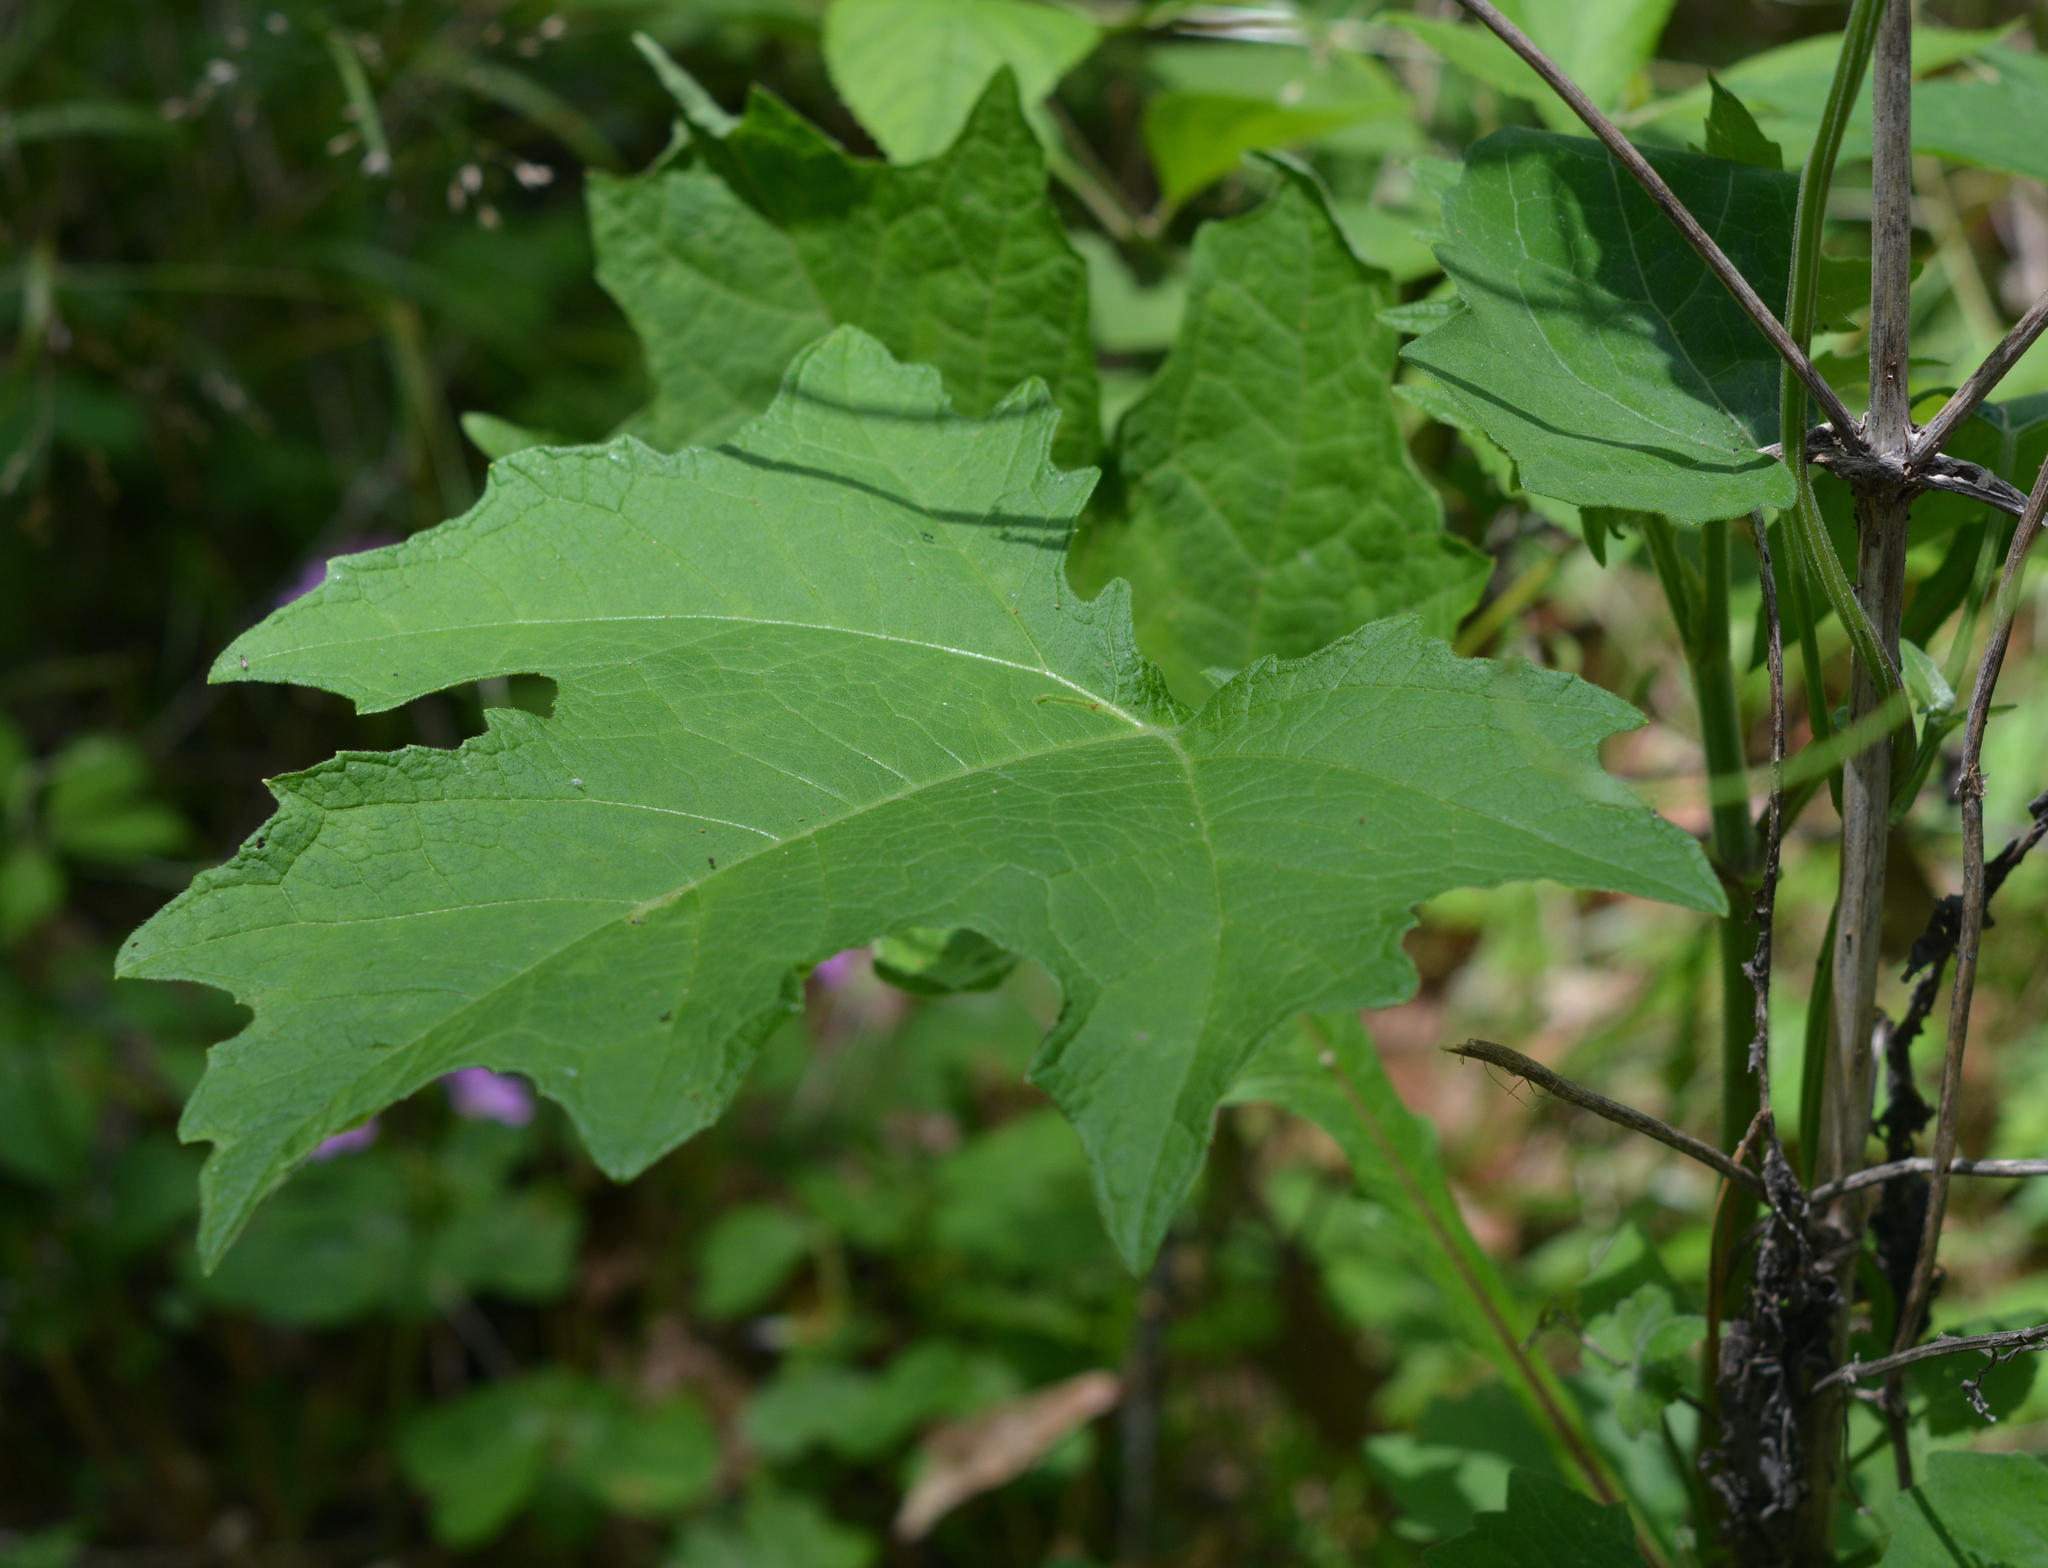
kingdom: Plantae
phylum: Tracheophyta
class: Magnoliopsida
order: Asterales
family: Asteraceae
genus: Smallanthus
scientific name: Smallanthus uvedalia
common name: Bear's-foot
